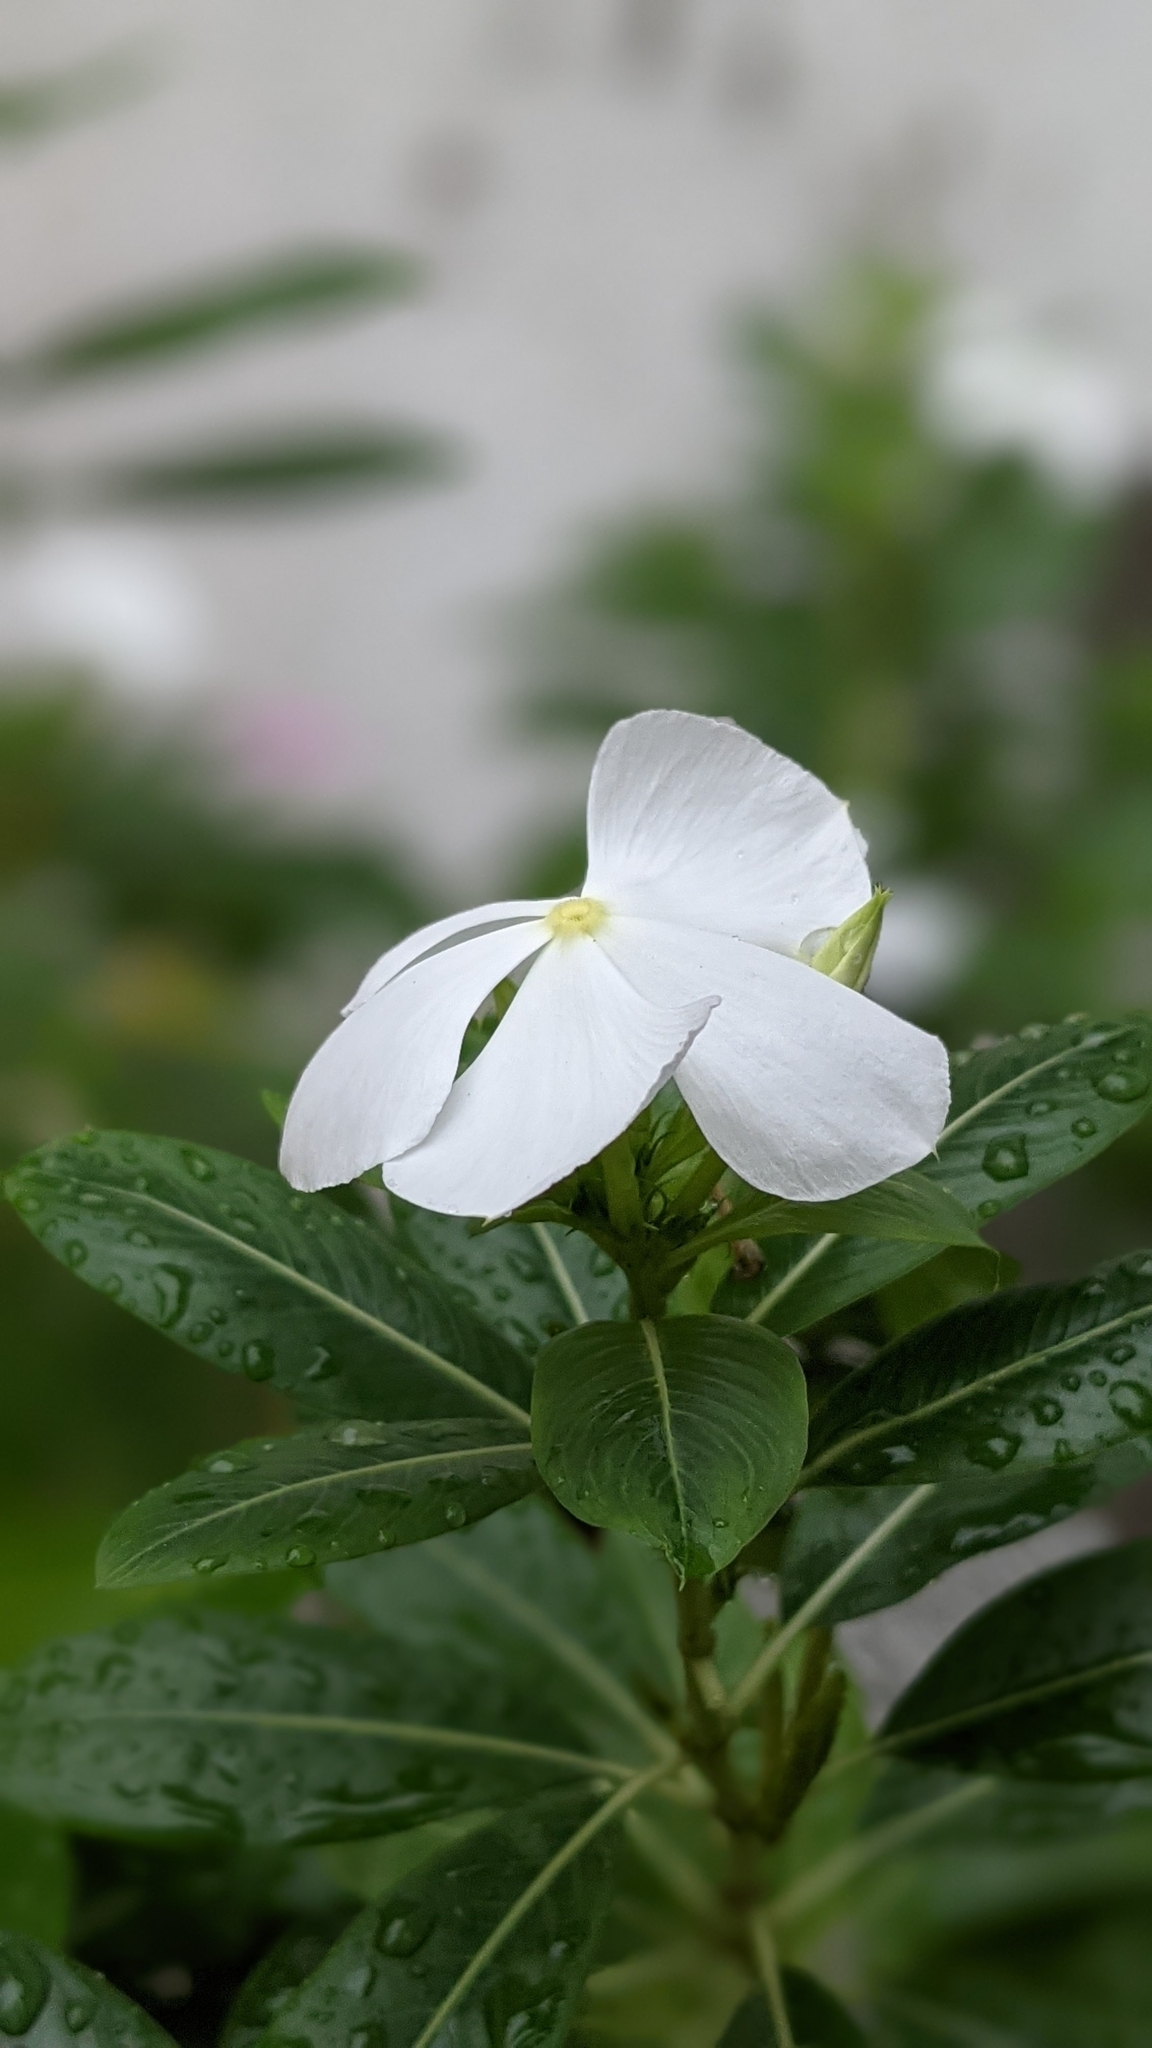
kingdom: Plantae
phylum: Tracheophyta
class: Magnoliopsida
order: Gentianales
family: Apocynaceae
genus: Catharanthus
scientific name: Catharanthus roseus
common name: Madagascar periwinkle
